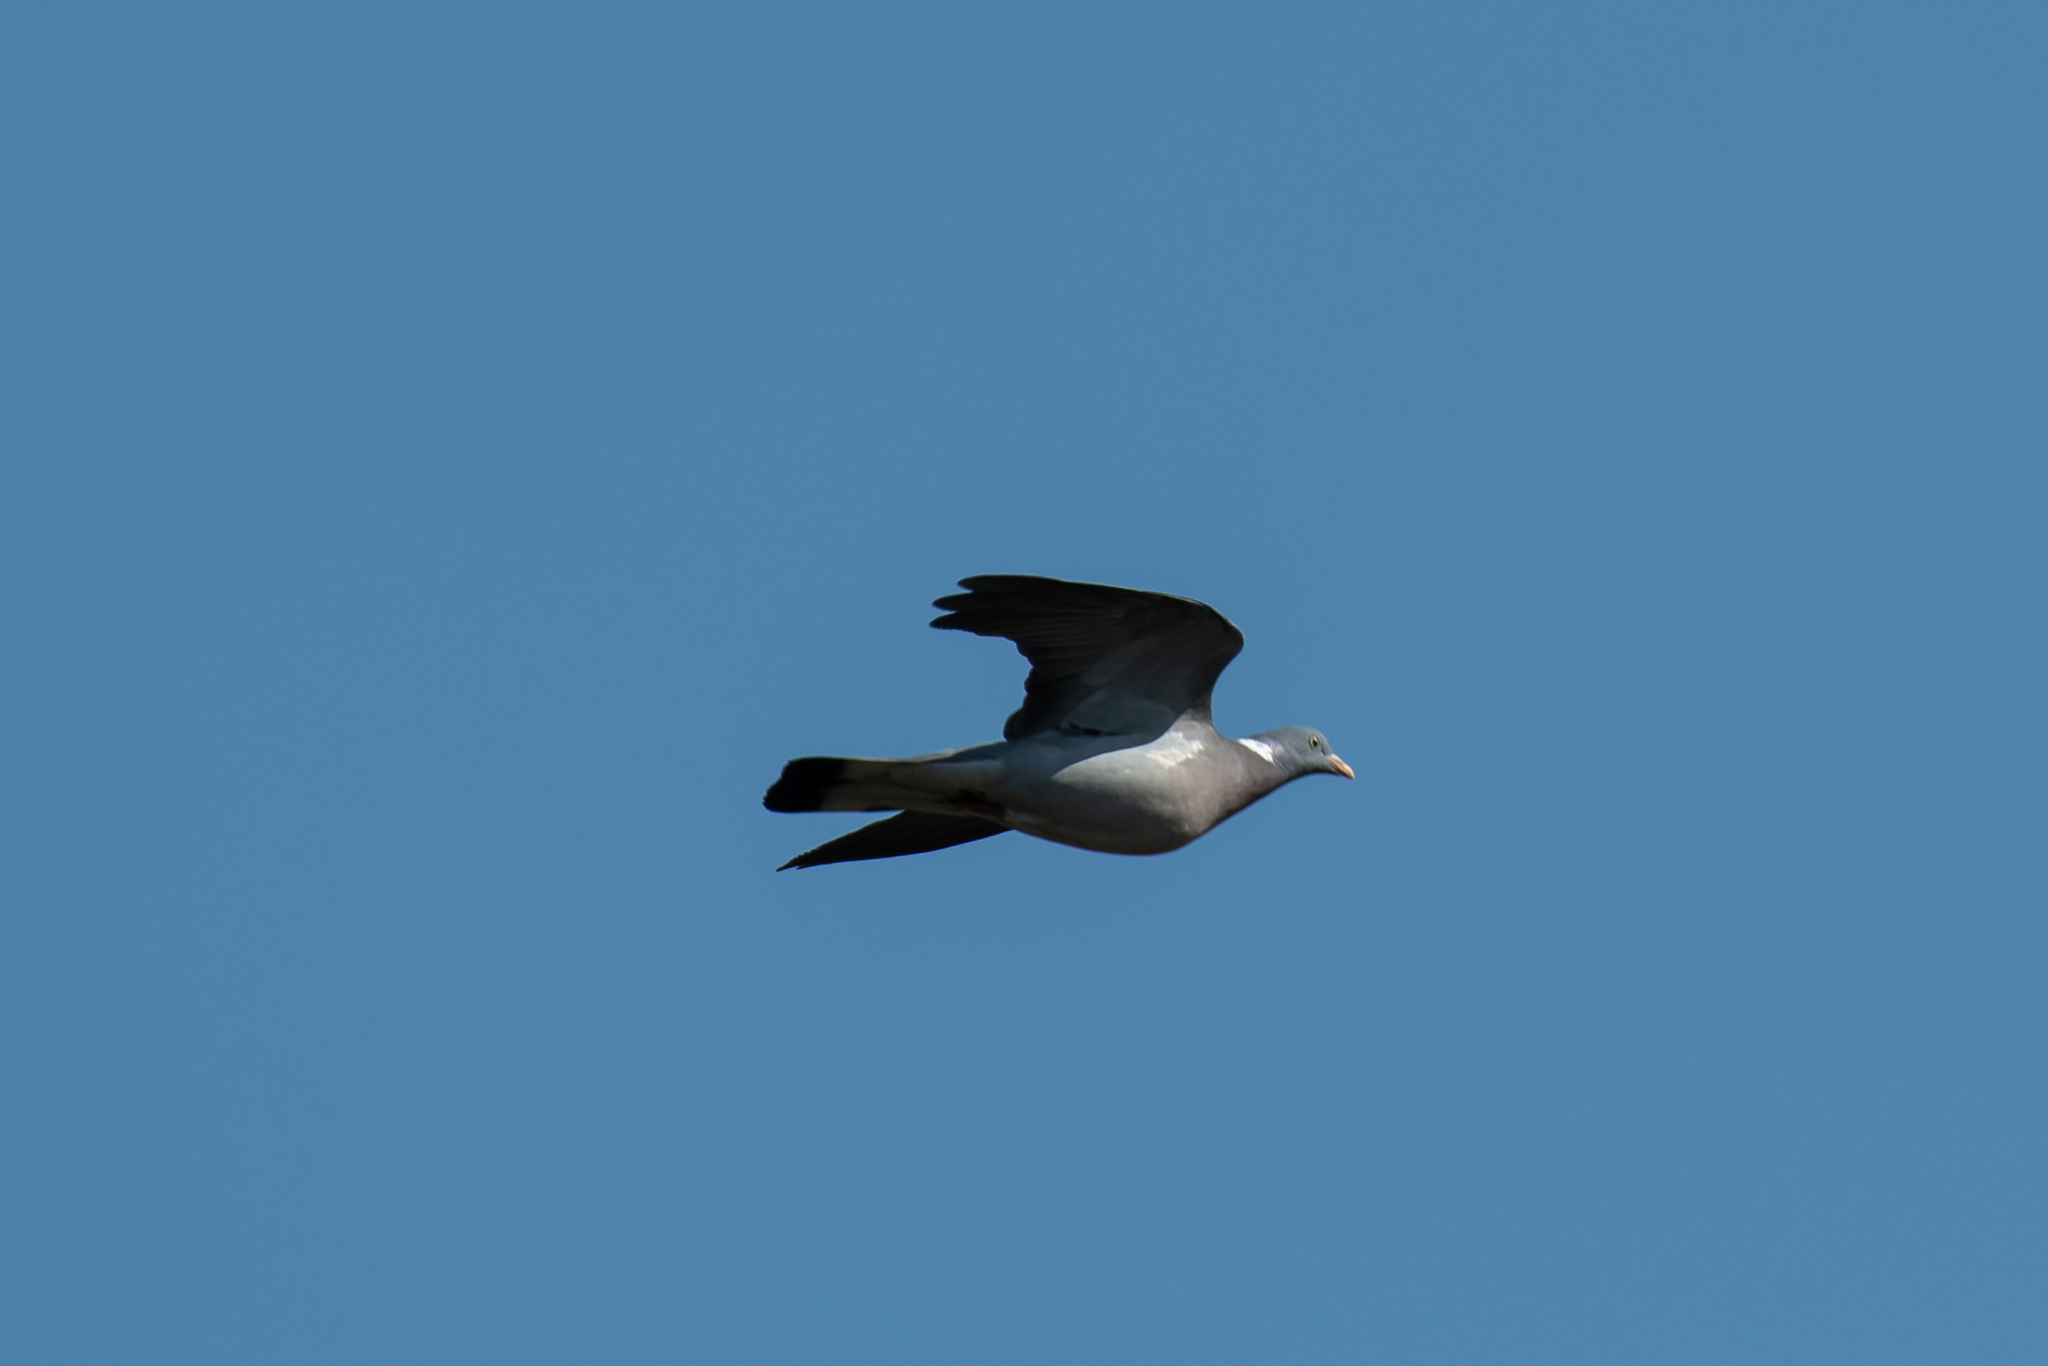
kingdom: Animalia
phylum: Chordata
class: Aves
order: Columbiformes
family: Columbidae
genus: Columba
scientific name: Columba palumbus
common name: Common wood pigeon
